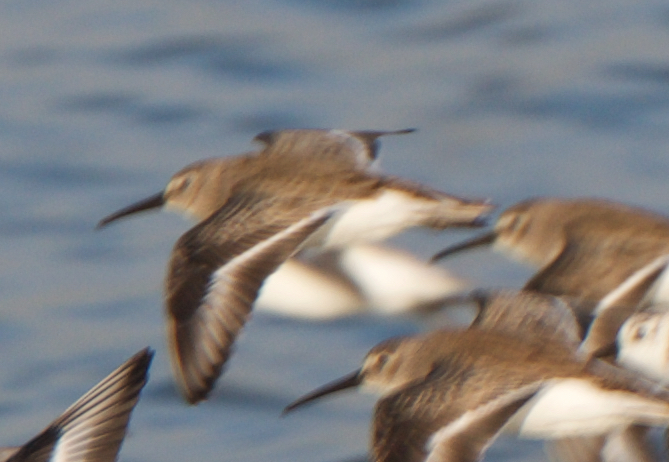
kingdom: Animalia
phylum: Chordata
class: Aves
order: Charadriiformes
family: Scolopacidae
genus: Calidris
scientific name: Calidris alpina
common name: Dunlin
